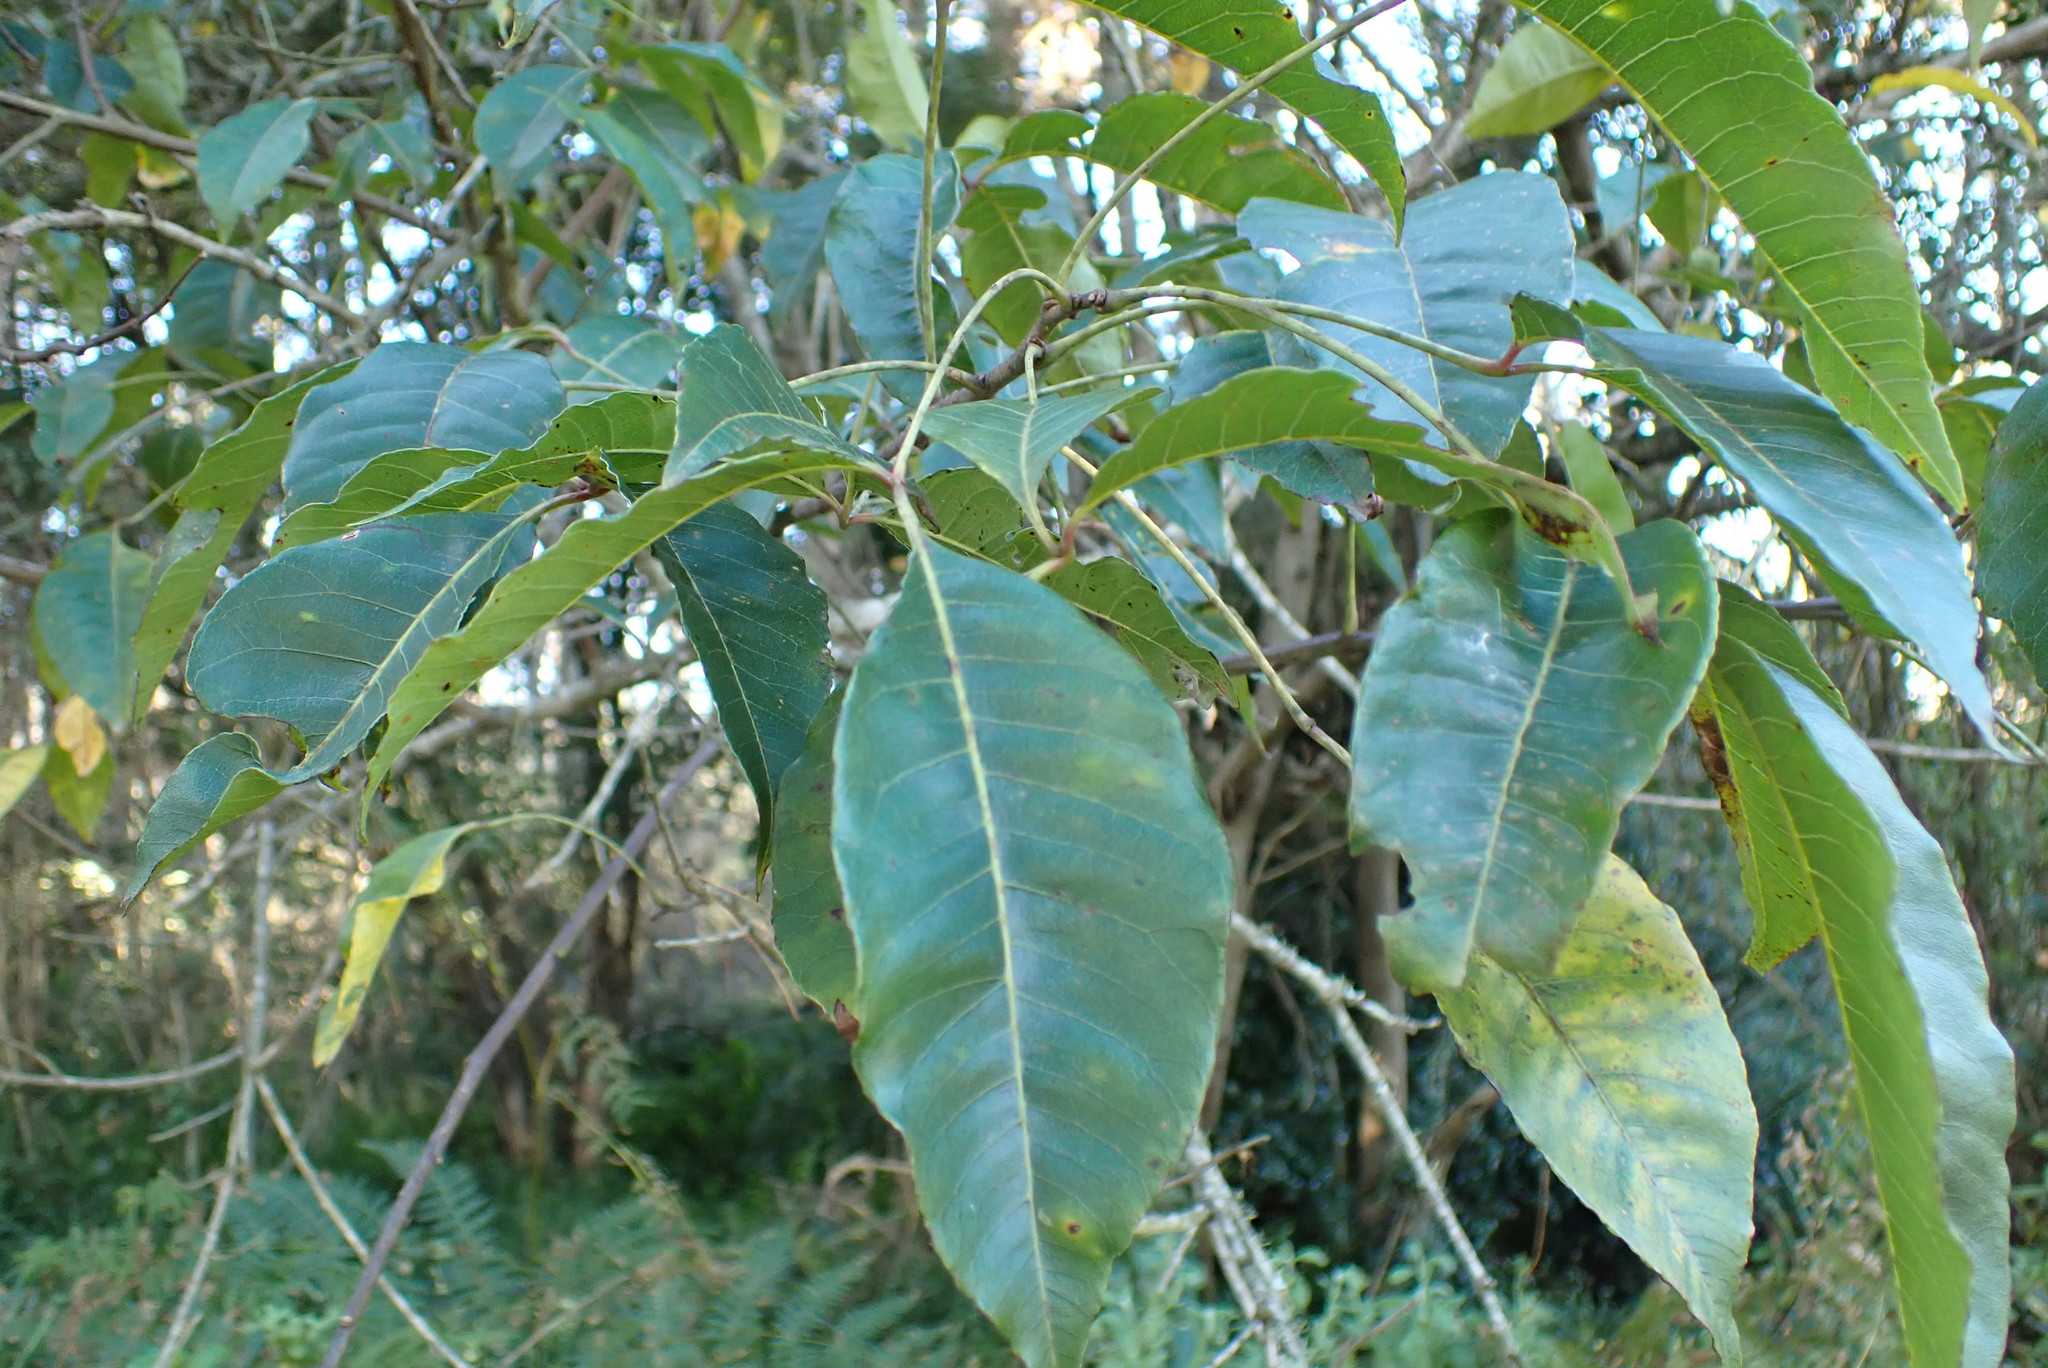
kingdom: Plantae
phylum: Tracheophyta
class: Magnoliopsida
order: Lamiales
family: Stilbaceae
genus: Nuxia
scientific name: Nuxia floribunda
